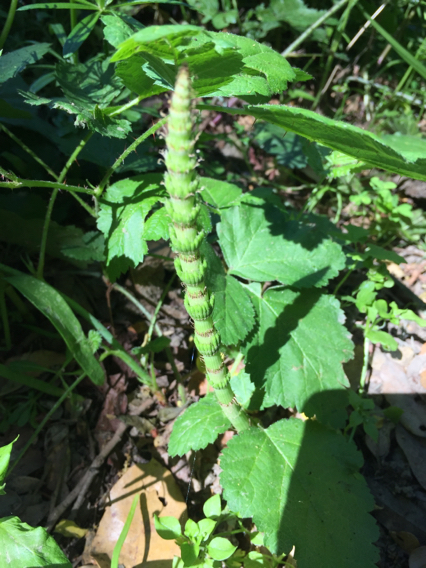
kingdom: Plantae
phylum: Tracheophyta
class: Polypodiopsida
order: Equisetales
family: Equisetaceae
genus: Equisetum
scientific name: Equisetum braunii
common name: Braun's horsetail
